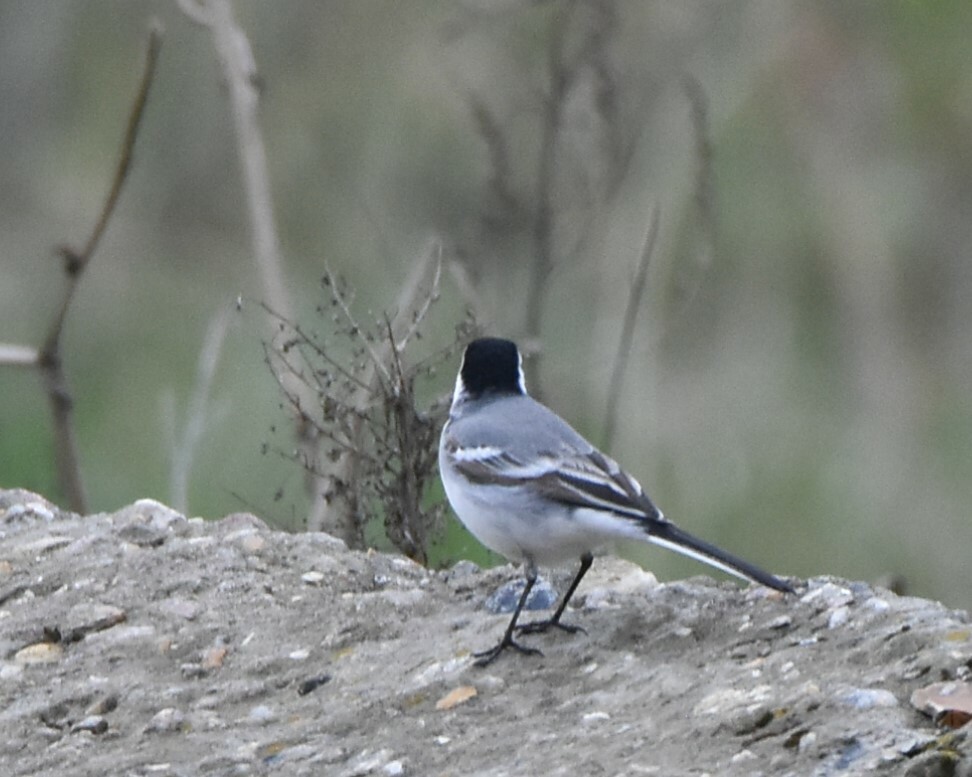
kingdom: Animalia
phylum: Chordata
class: Aves
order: Passeriformes
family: Motacillidae
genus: Motacilla
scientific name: Motacilla alba
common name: White wagtail
